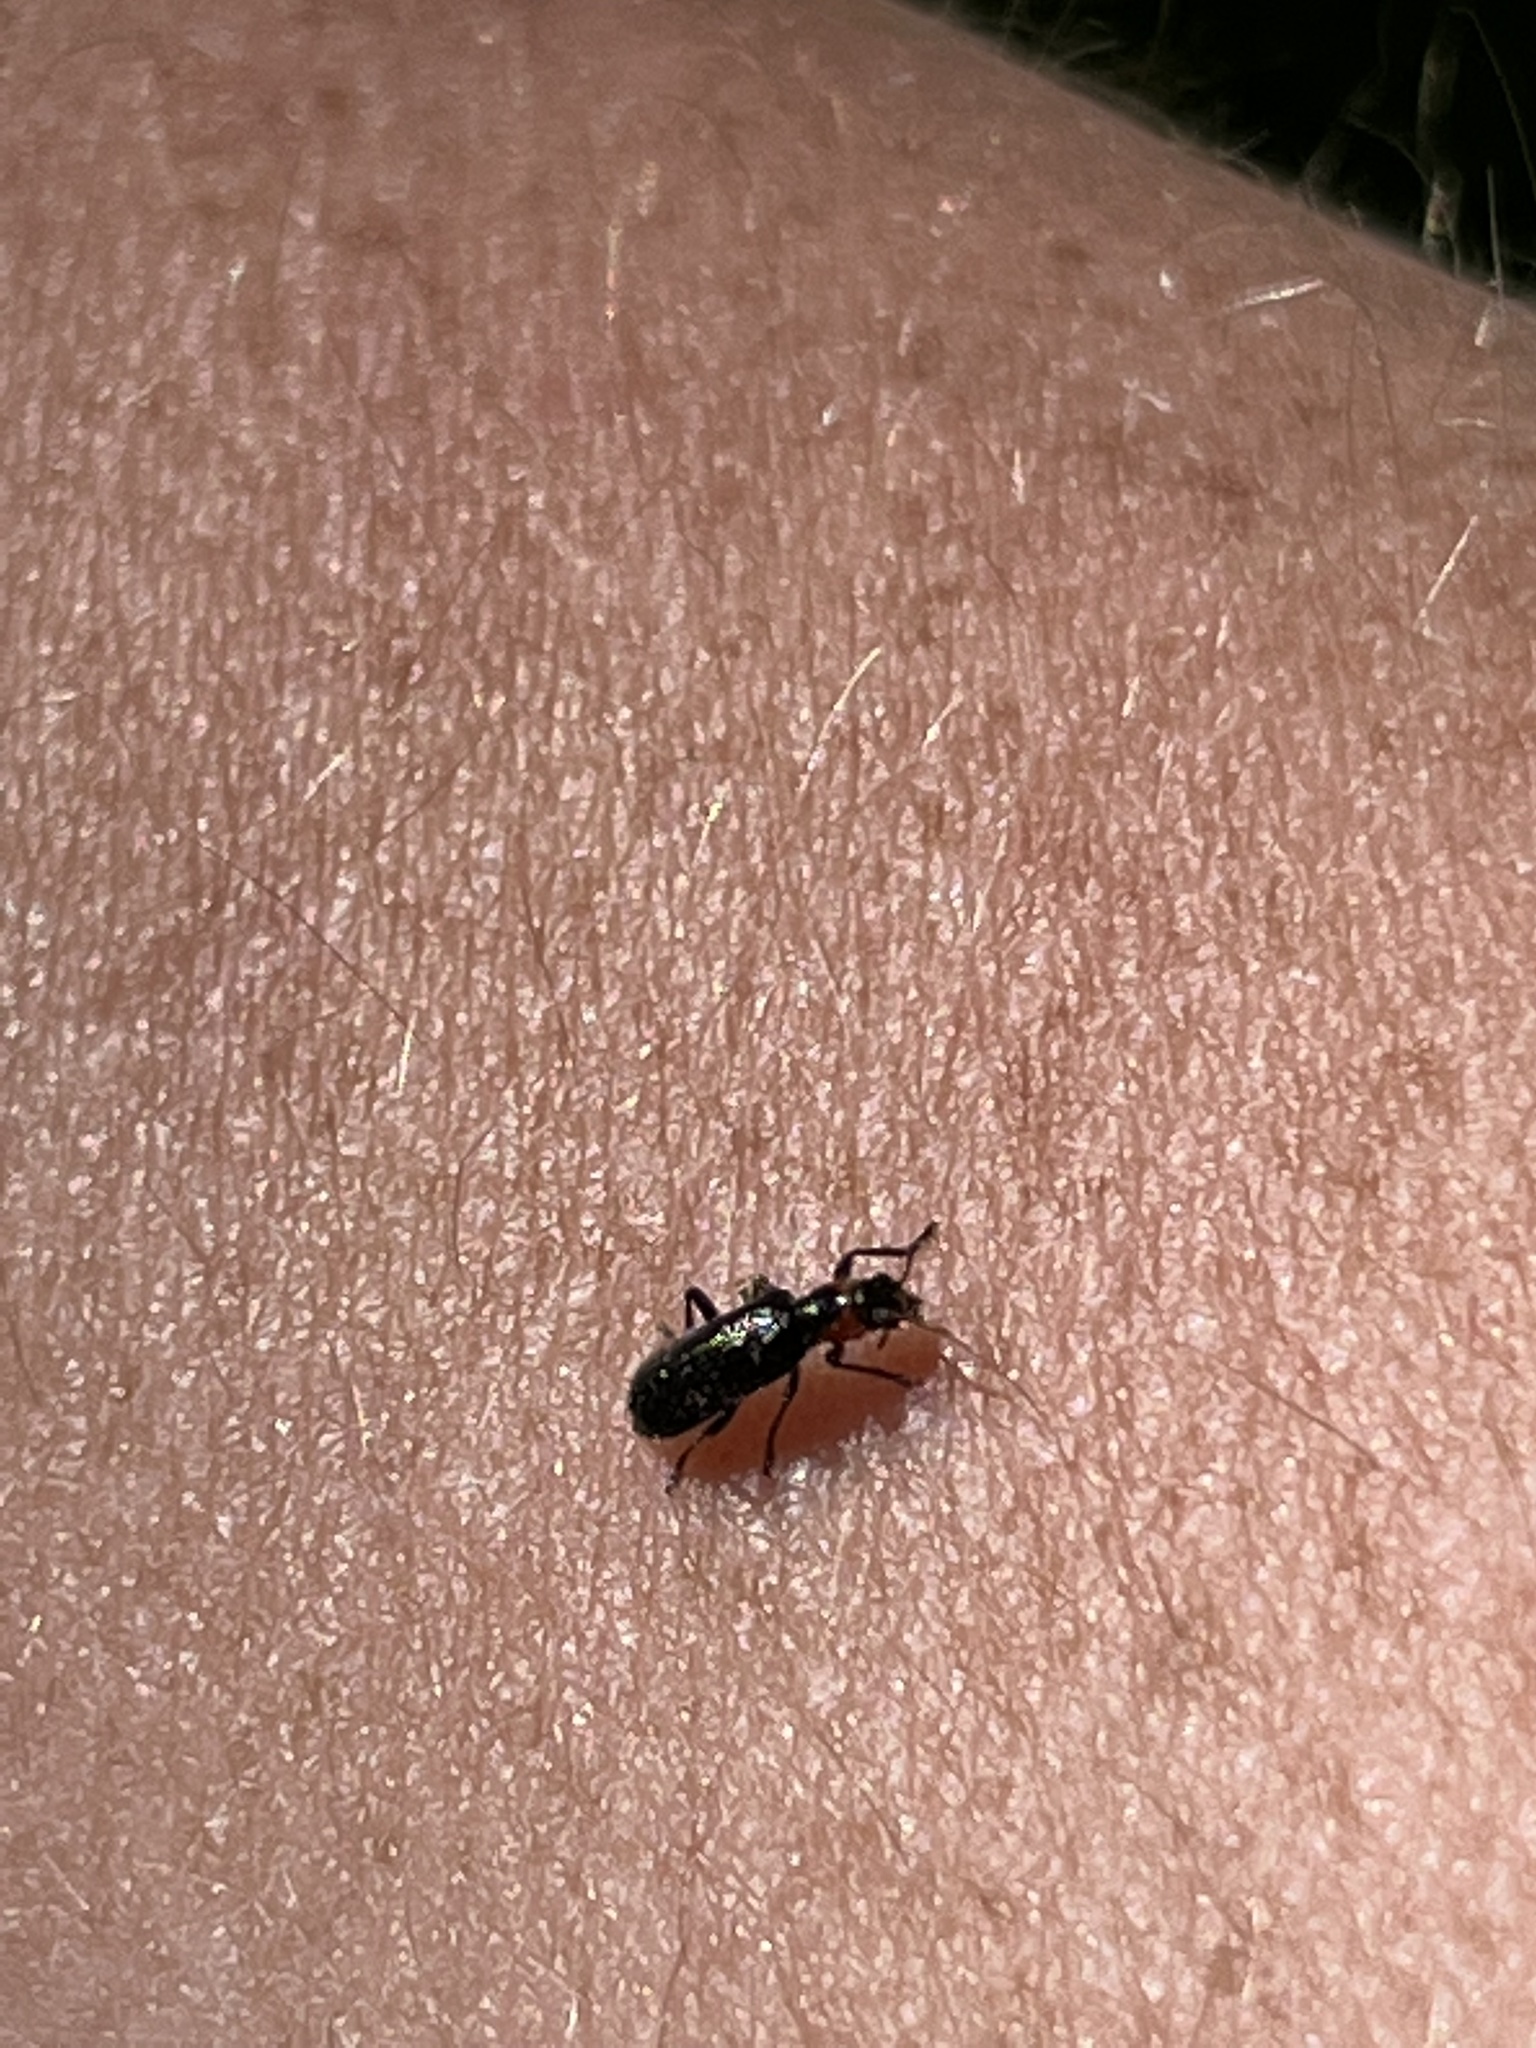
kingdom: Animalia
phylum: Arthropoda
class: Insecta
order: Coleoptera
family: Cleridae
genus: Placopterus
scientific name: Placopterus thoracicus
